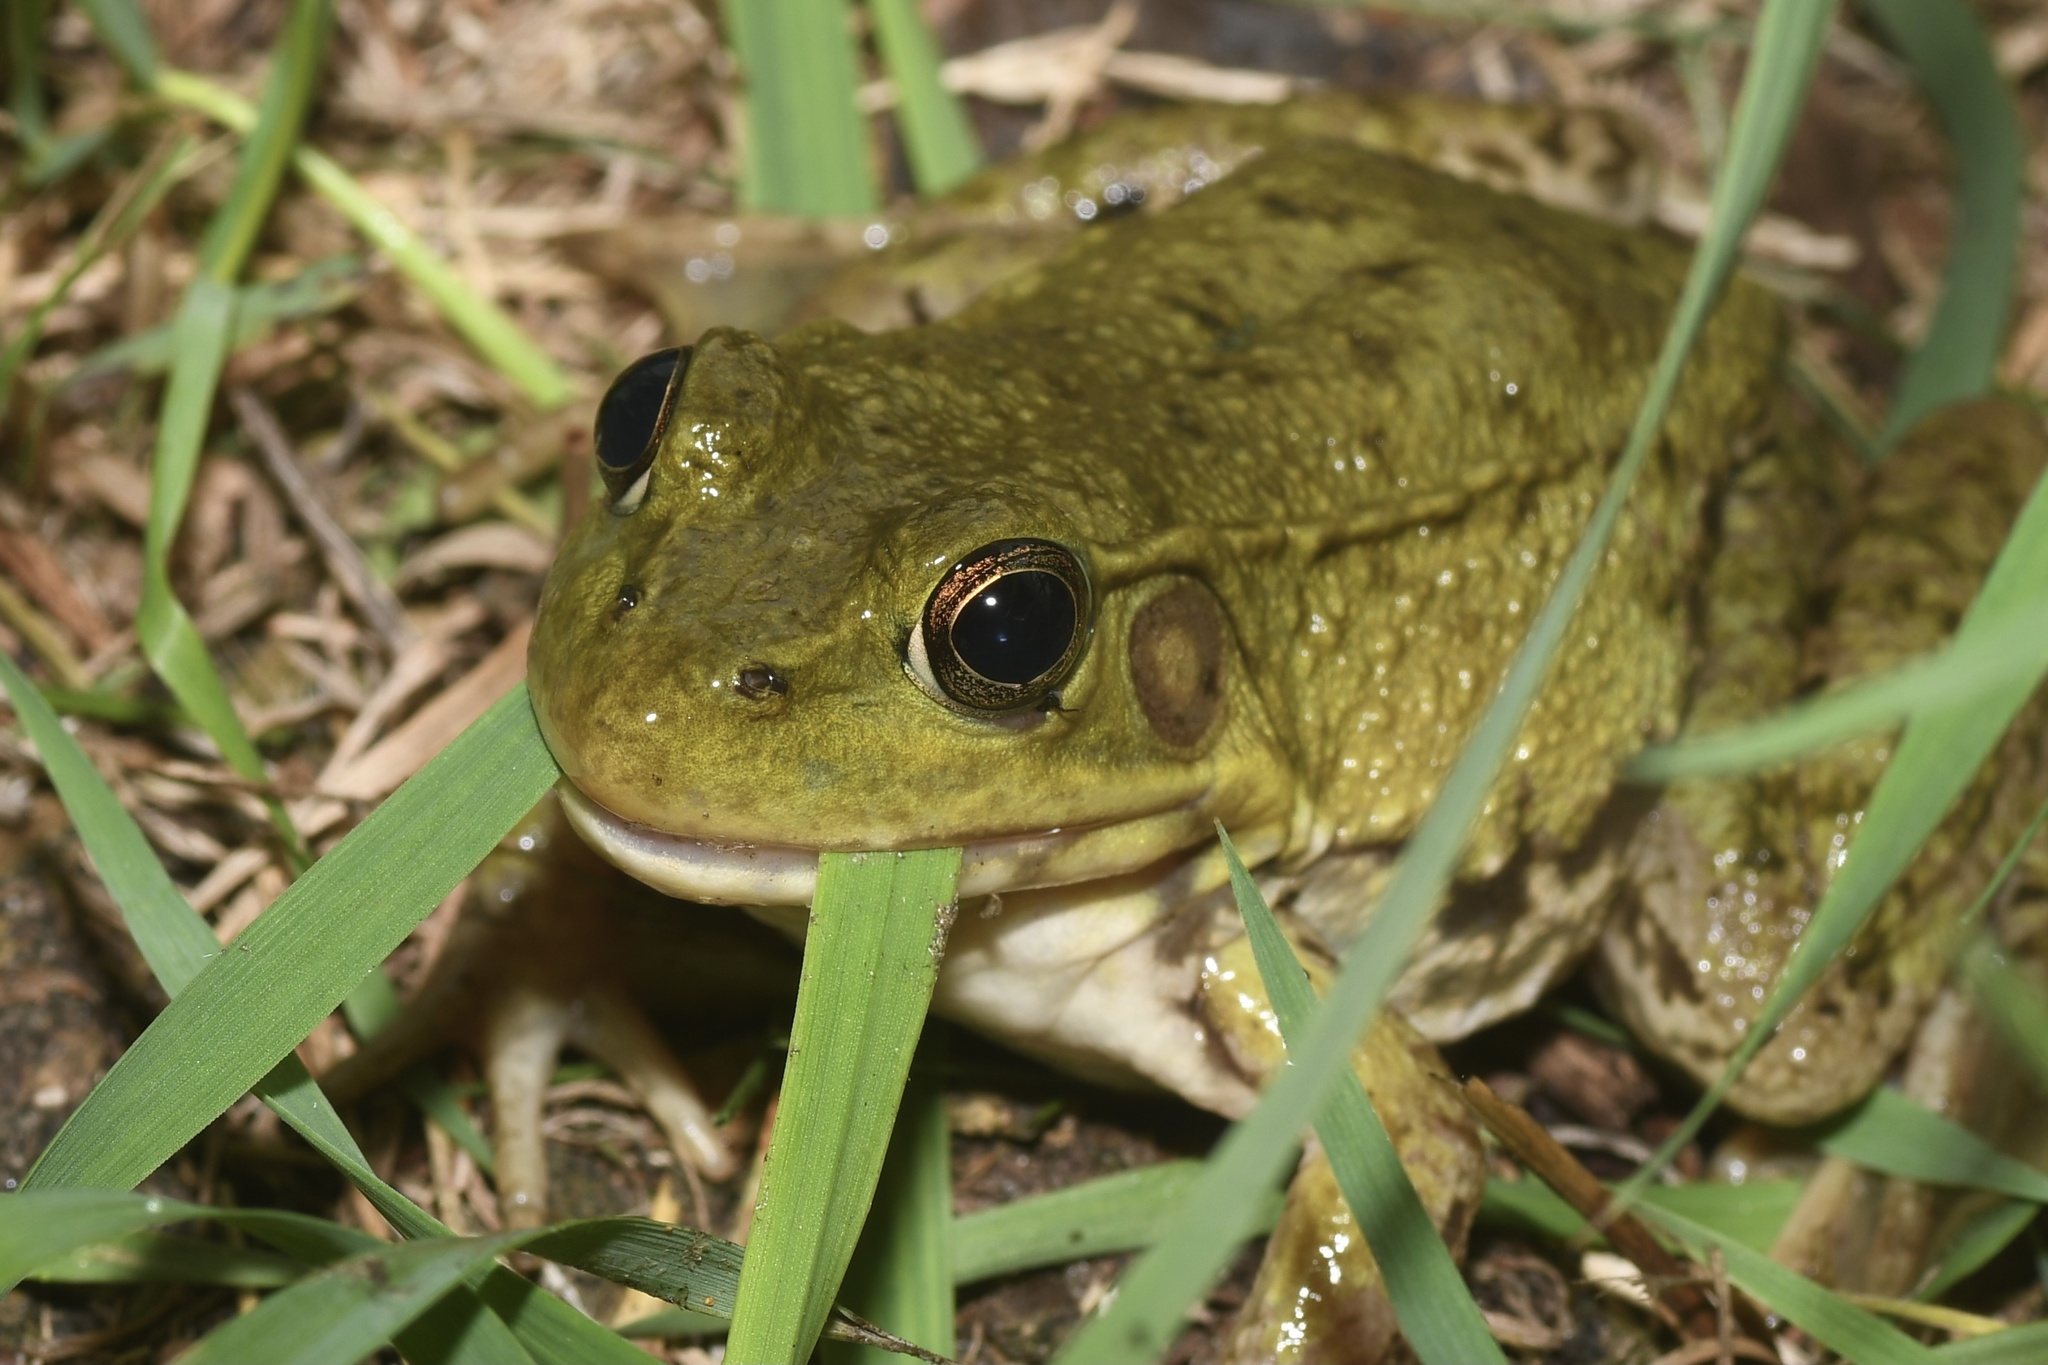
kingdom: Animalia
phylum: Chordata
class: Amphibia
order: Anura
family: Ranidae
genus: Lithobates
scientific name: Lithobates clamitans
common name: Green frog
